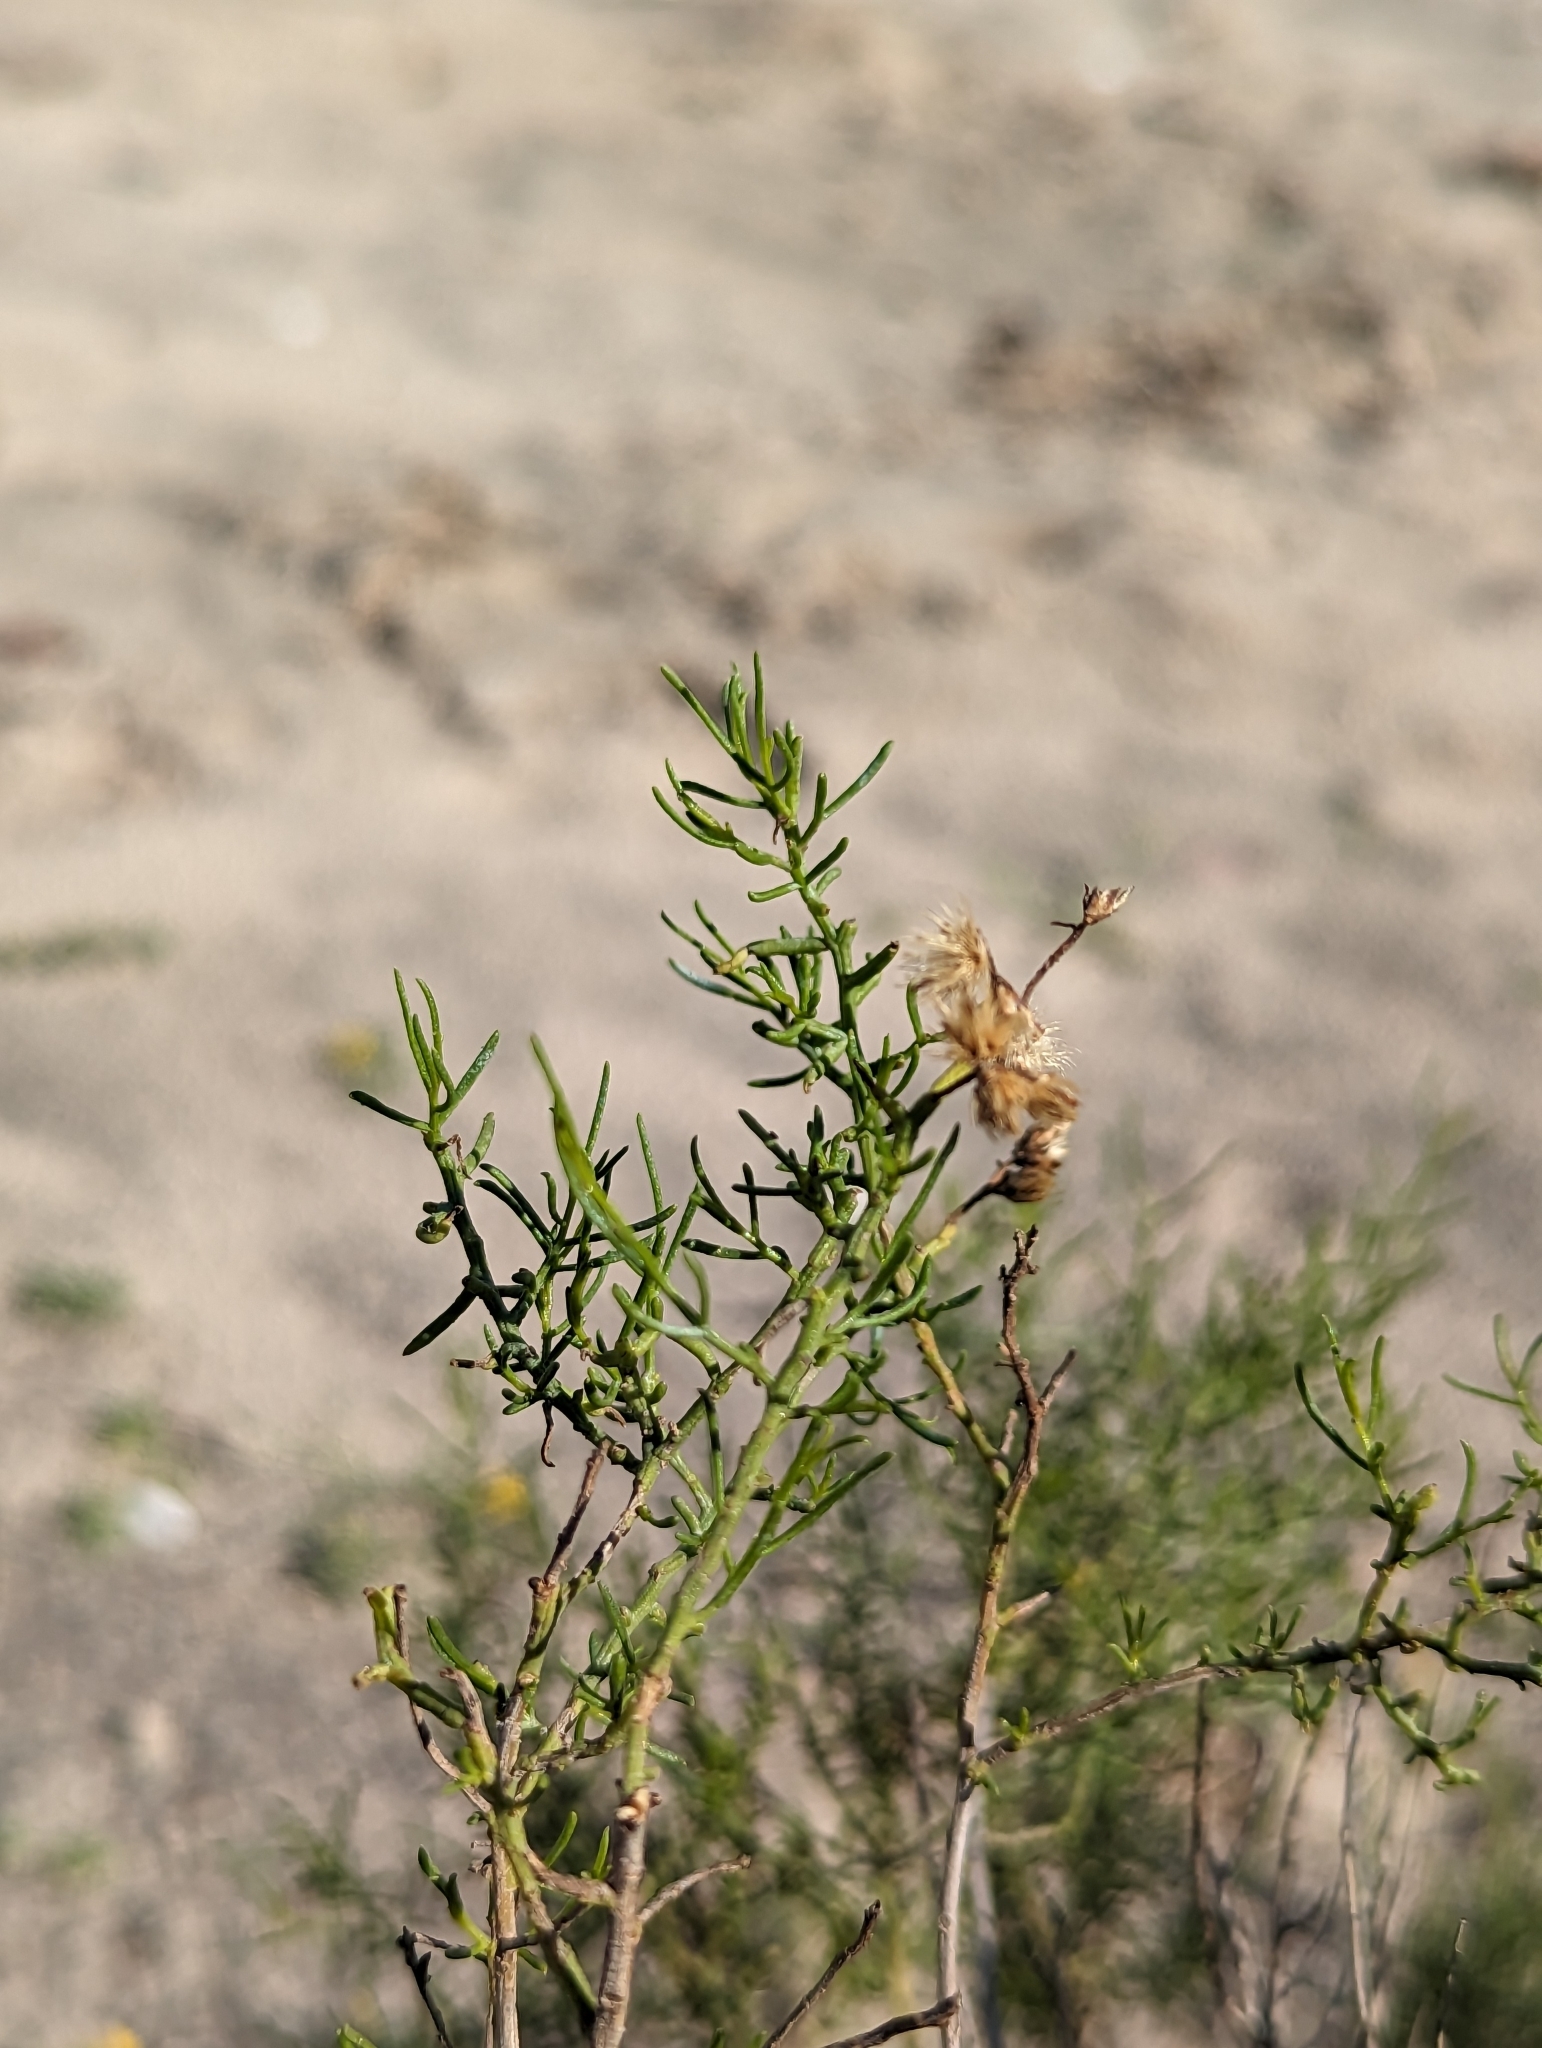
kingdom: Plantae
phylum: Tracheophyta
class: Magnoliopsida
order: Asterales
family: Asteraceae
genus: Gundlachia
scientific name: Gundlachia diffusa
